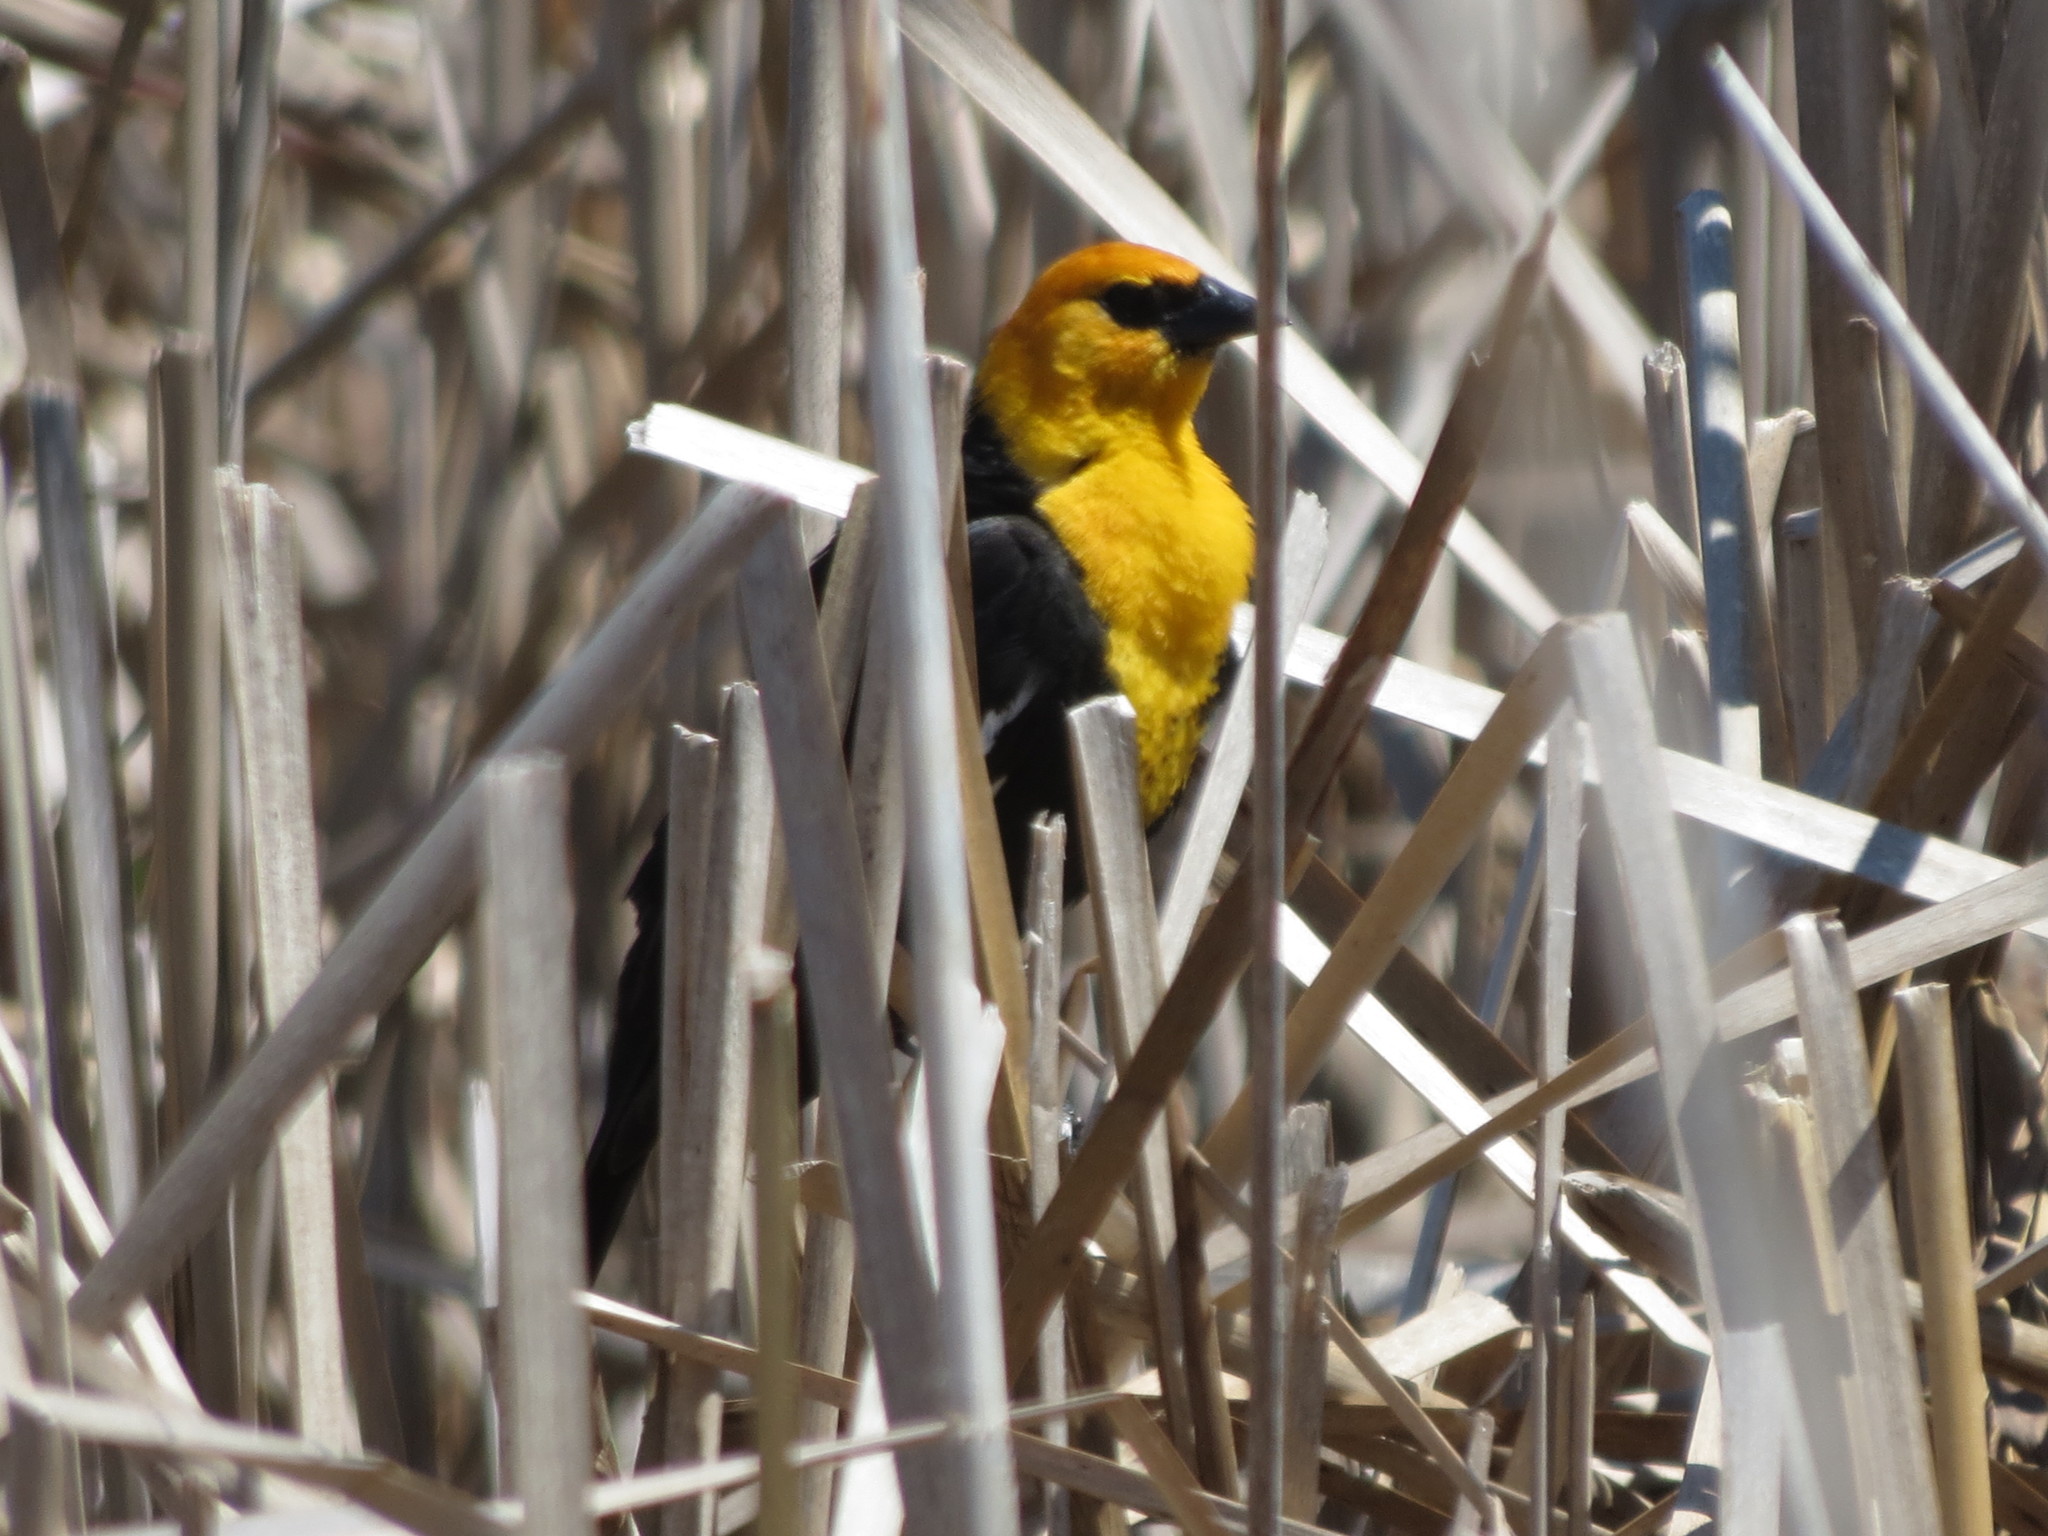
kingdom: Animalia
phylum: Chordata
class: Aves
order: Passeriformes
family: Icteridae
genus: Xanthocephalus
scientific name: Xanthocephalus xanthocephalus
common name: Yellow-headed blackbird
